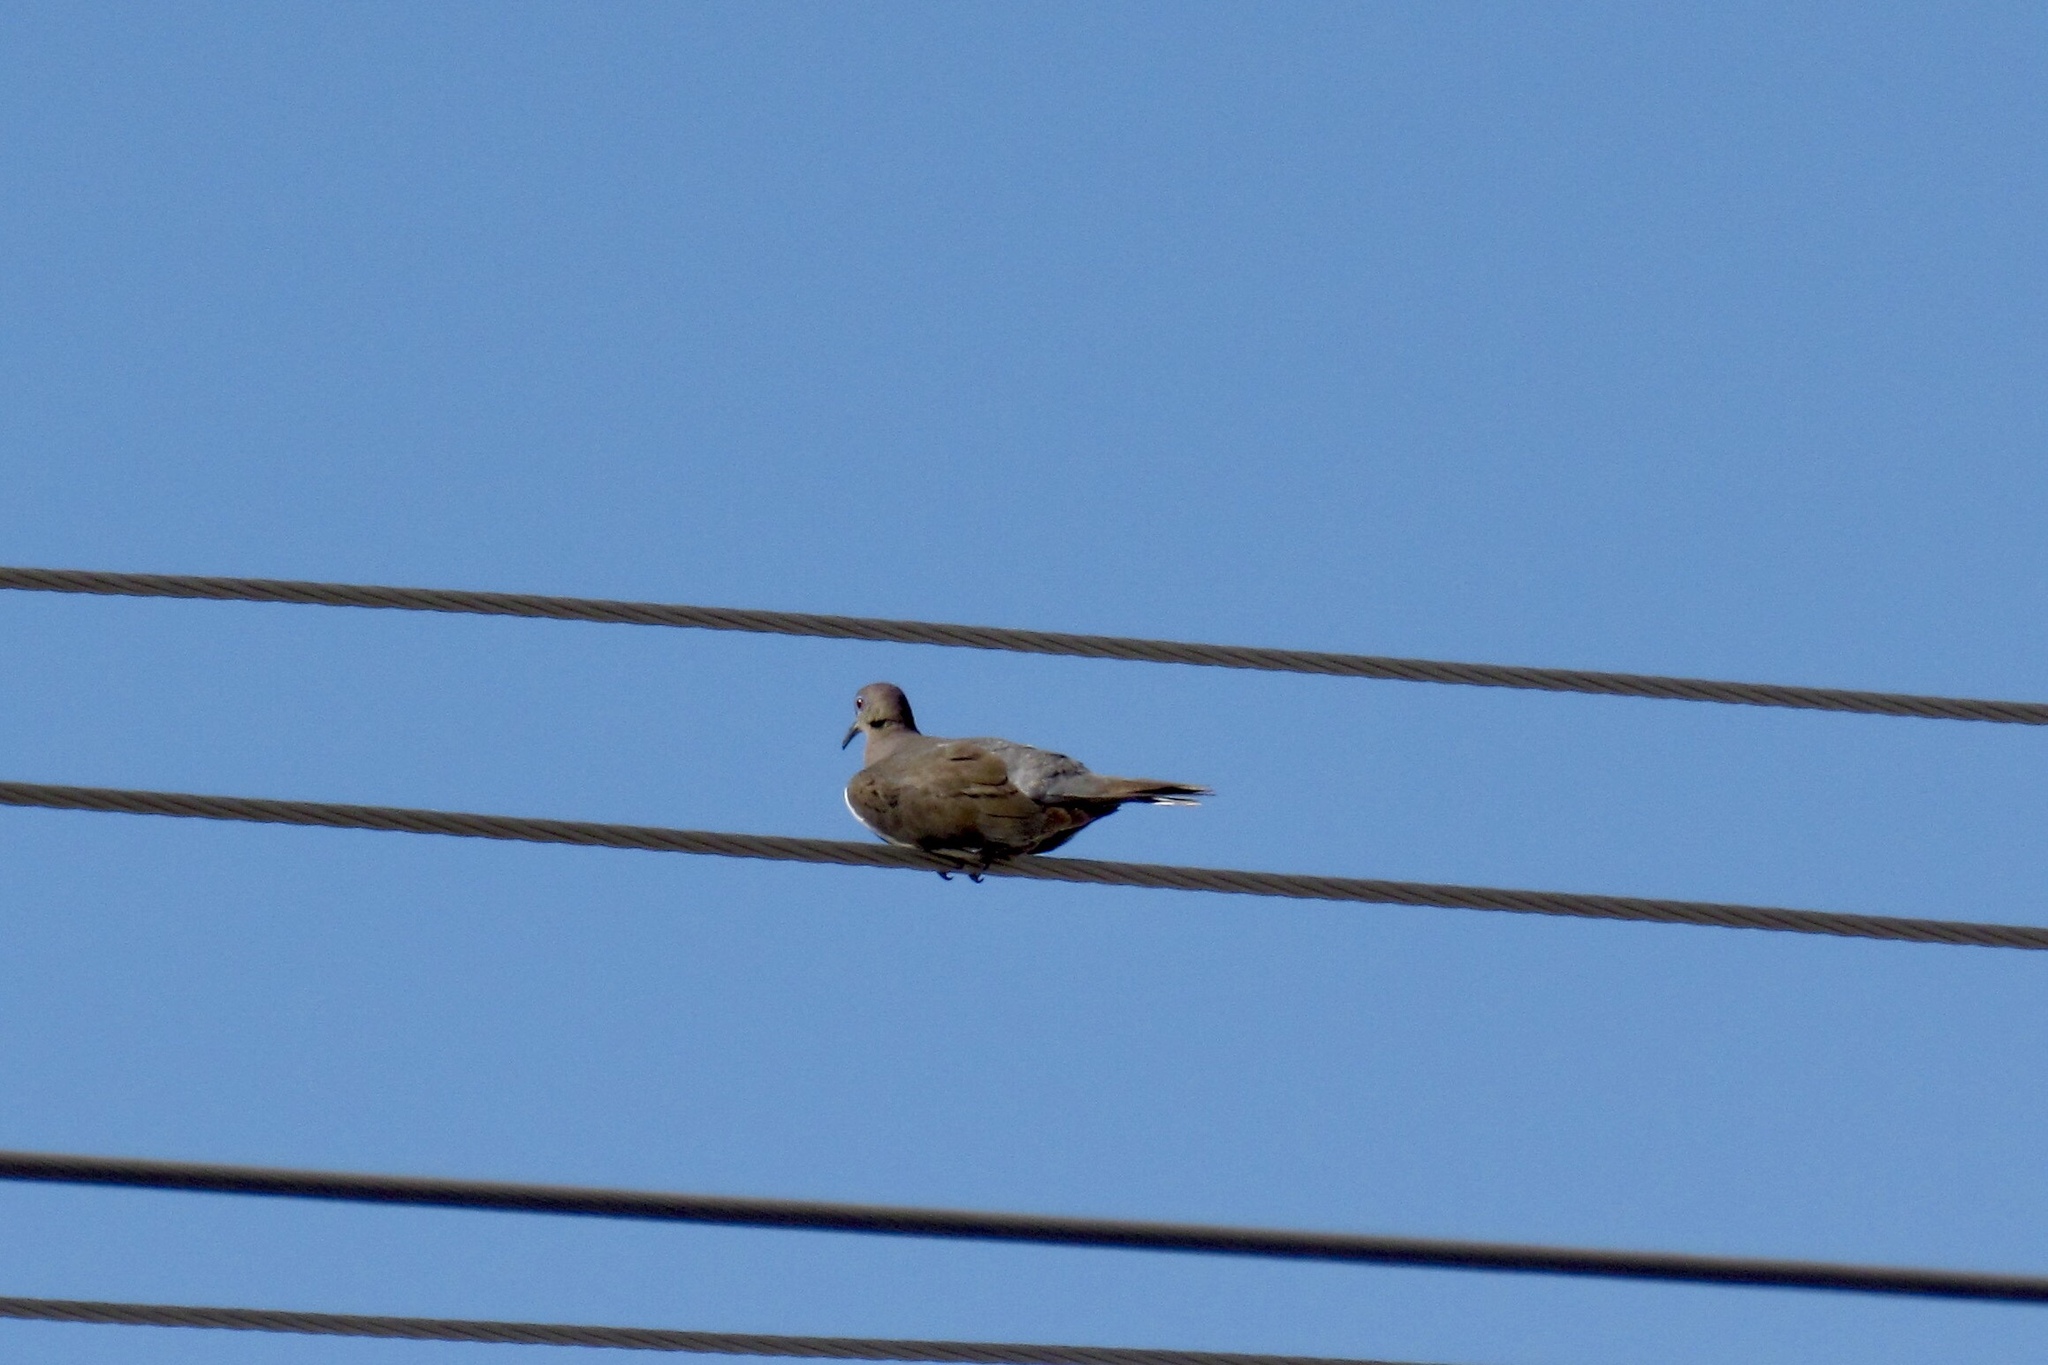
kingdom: Animalia
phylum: Chordata
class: Aves
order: Columbiformes
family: Columbidae
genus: Zenaida
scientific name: Zenaida asiatica
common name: White-winged dove
